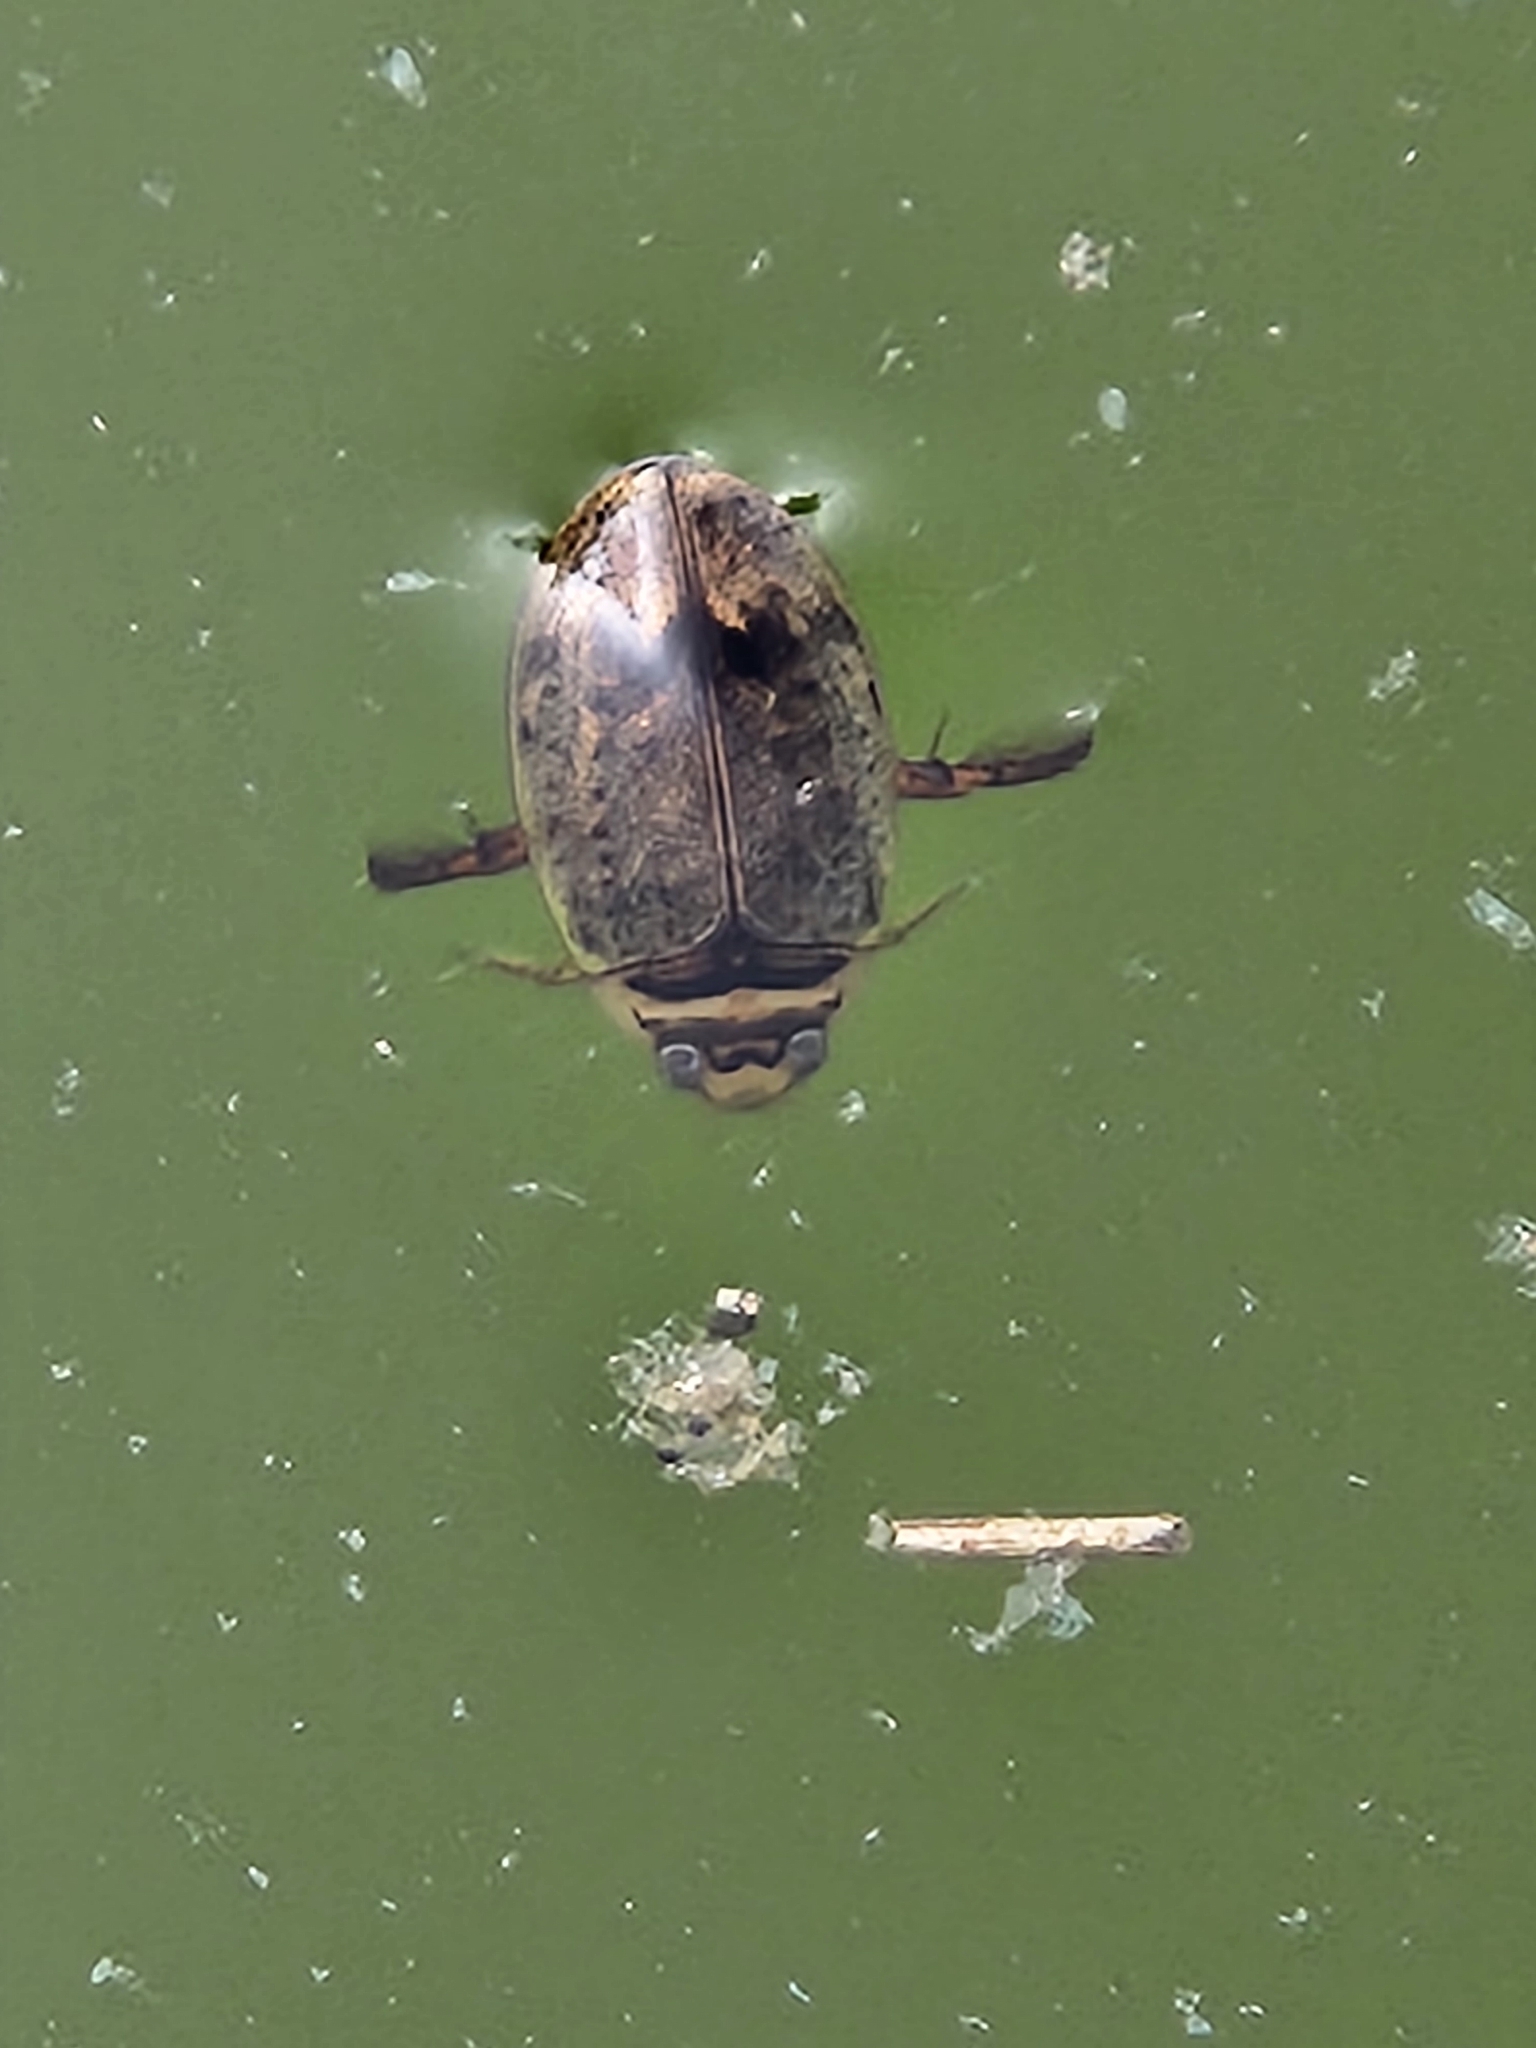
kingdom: Animalia
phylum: Arthropoda
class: Insecta
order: Coleoptera
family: Dytiscidae
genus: Thermonectus
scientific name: Thermonectus nigrofasciatus
